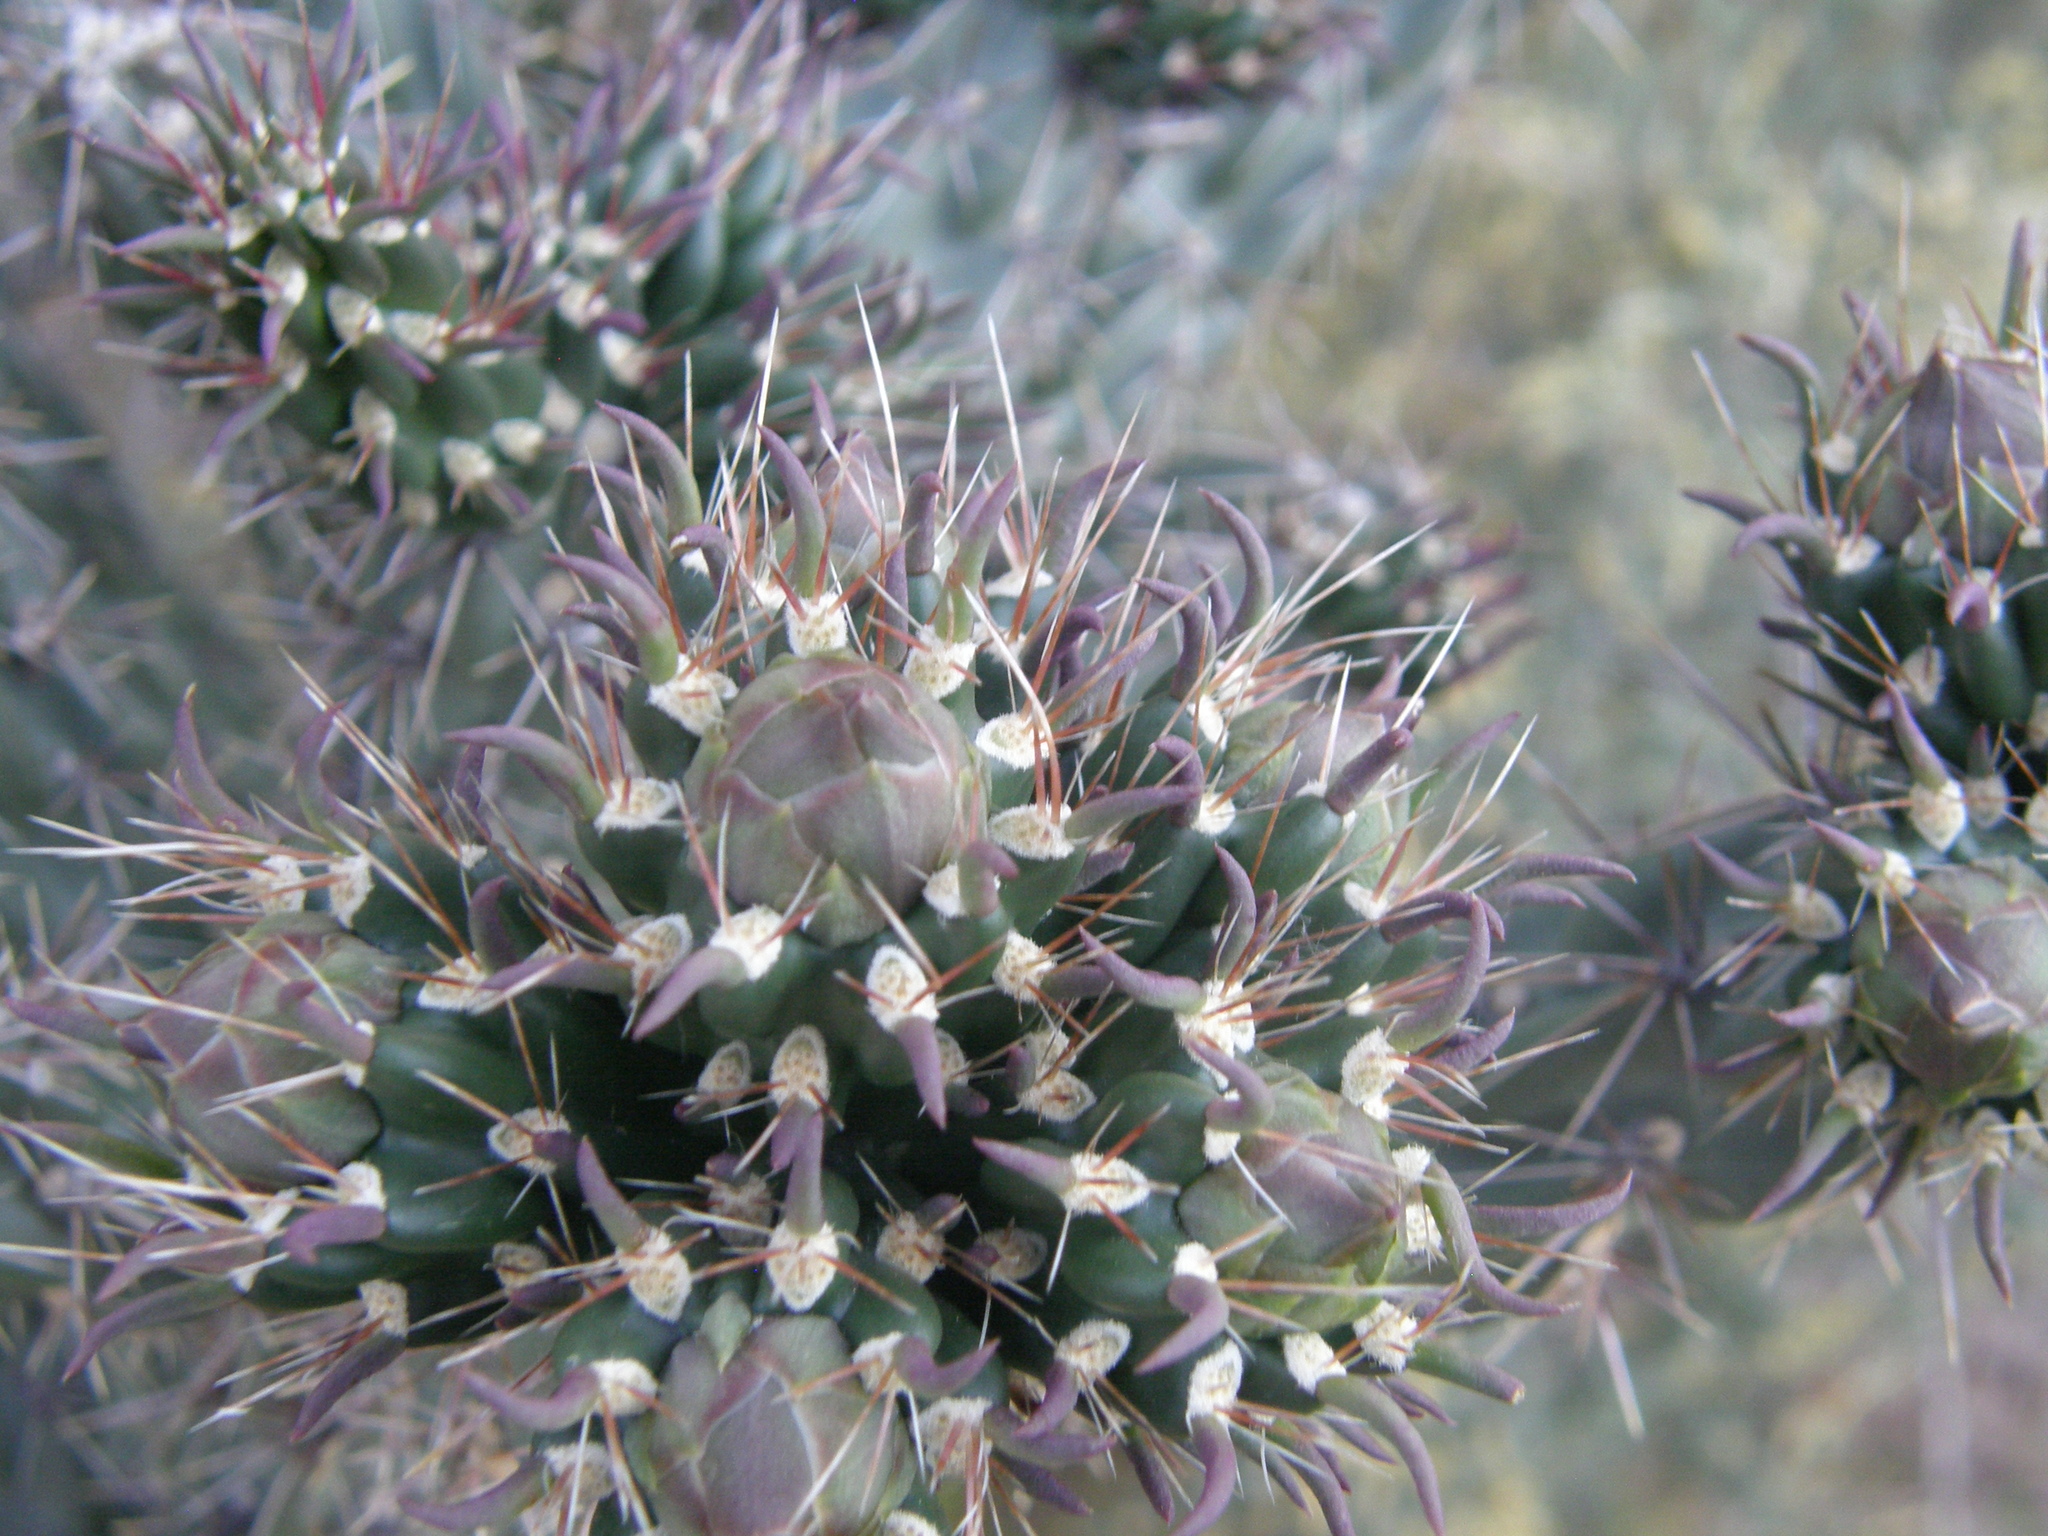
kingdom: Plantae
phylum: Tracheophyta
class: Magnoliopsida
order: Caryophyllales
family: Cactaceae
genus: Cylindropuntia
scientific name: Cylindropuntia imbricata
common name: Candelabrum cactus
